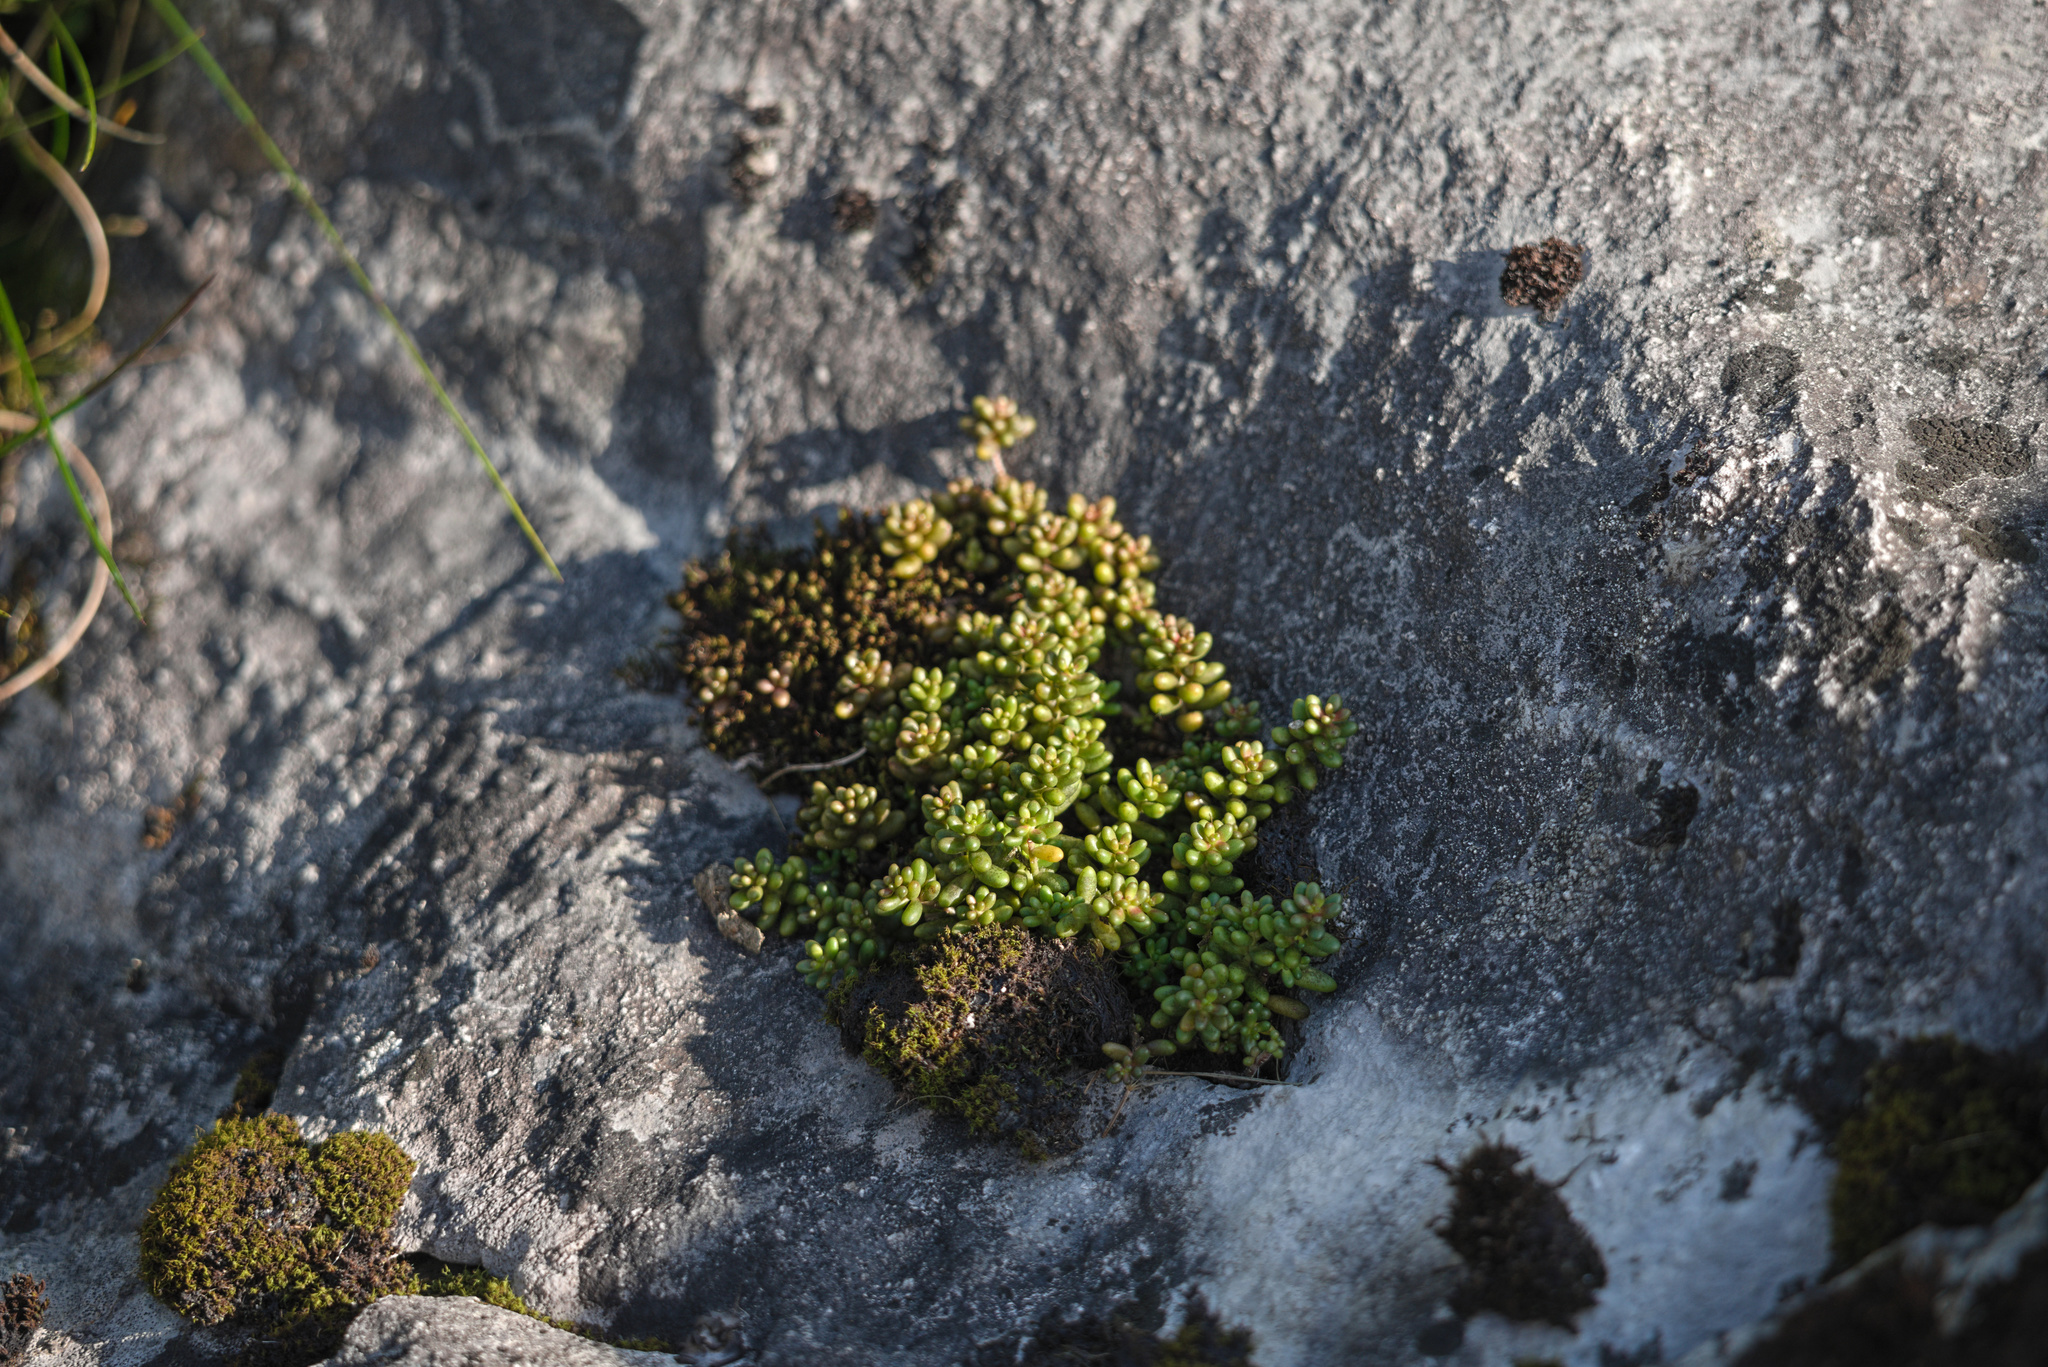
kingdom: Plantae
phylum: Tracheophyta
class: Magnoliopsida
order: Saxifragales
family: Crassulaceae
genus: Sedum
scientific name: Sedum album
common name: White stonecrop
